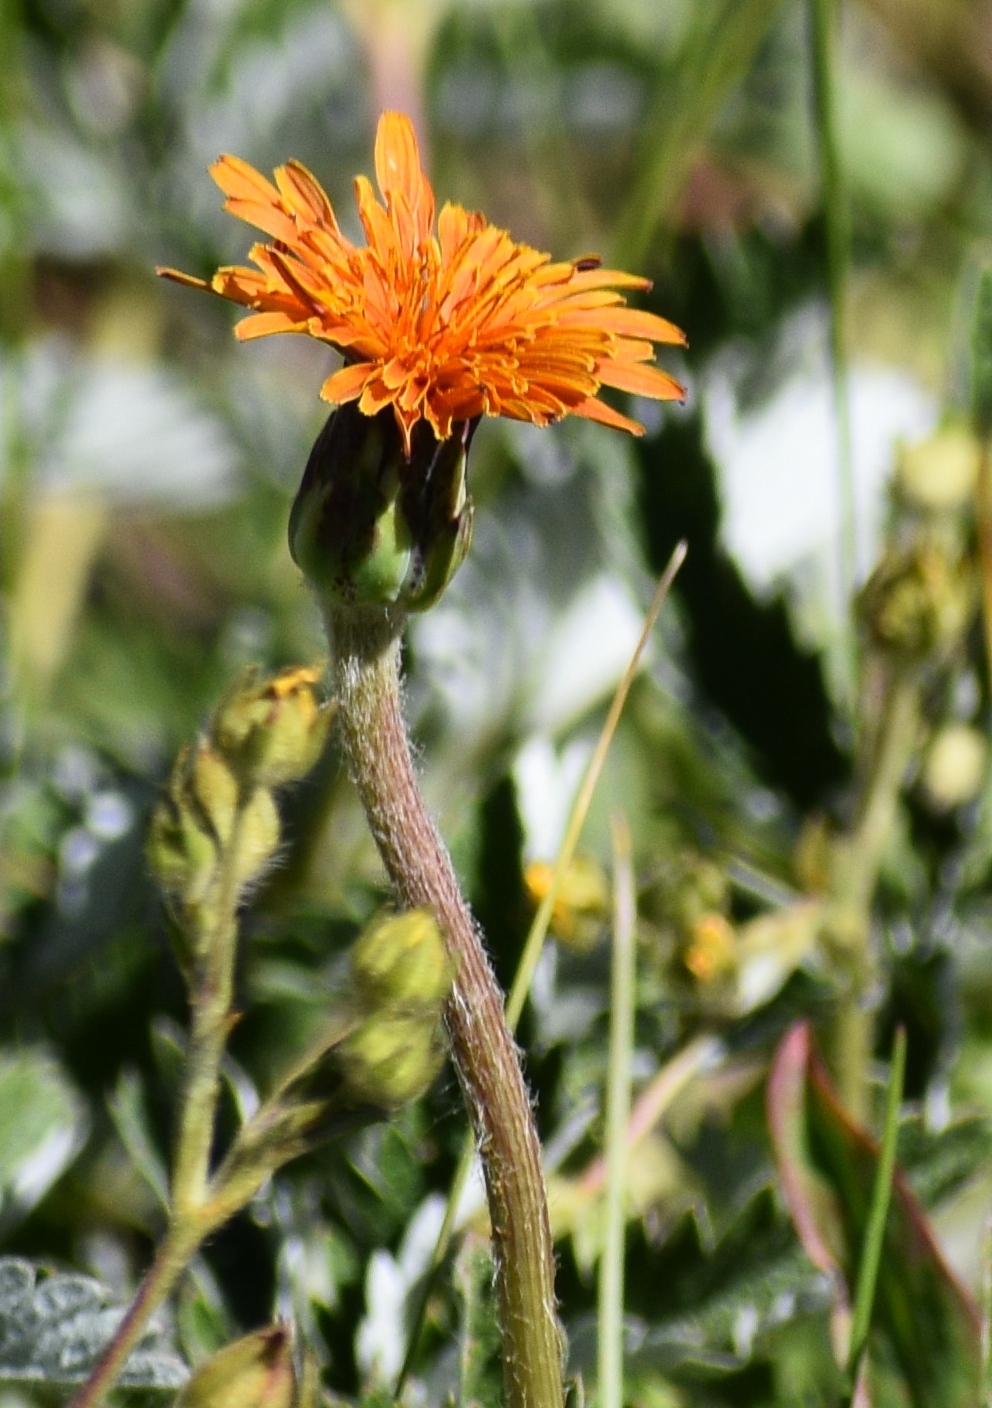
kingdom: Plantae
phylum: Tracheophyta
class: Magnoliopsida
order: Asterales
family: Asteraceae
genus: Agoseris
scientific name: Agoseris aurantiaca
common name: Mountain agoseris
